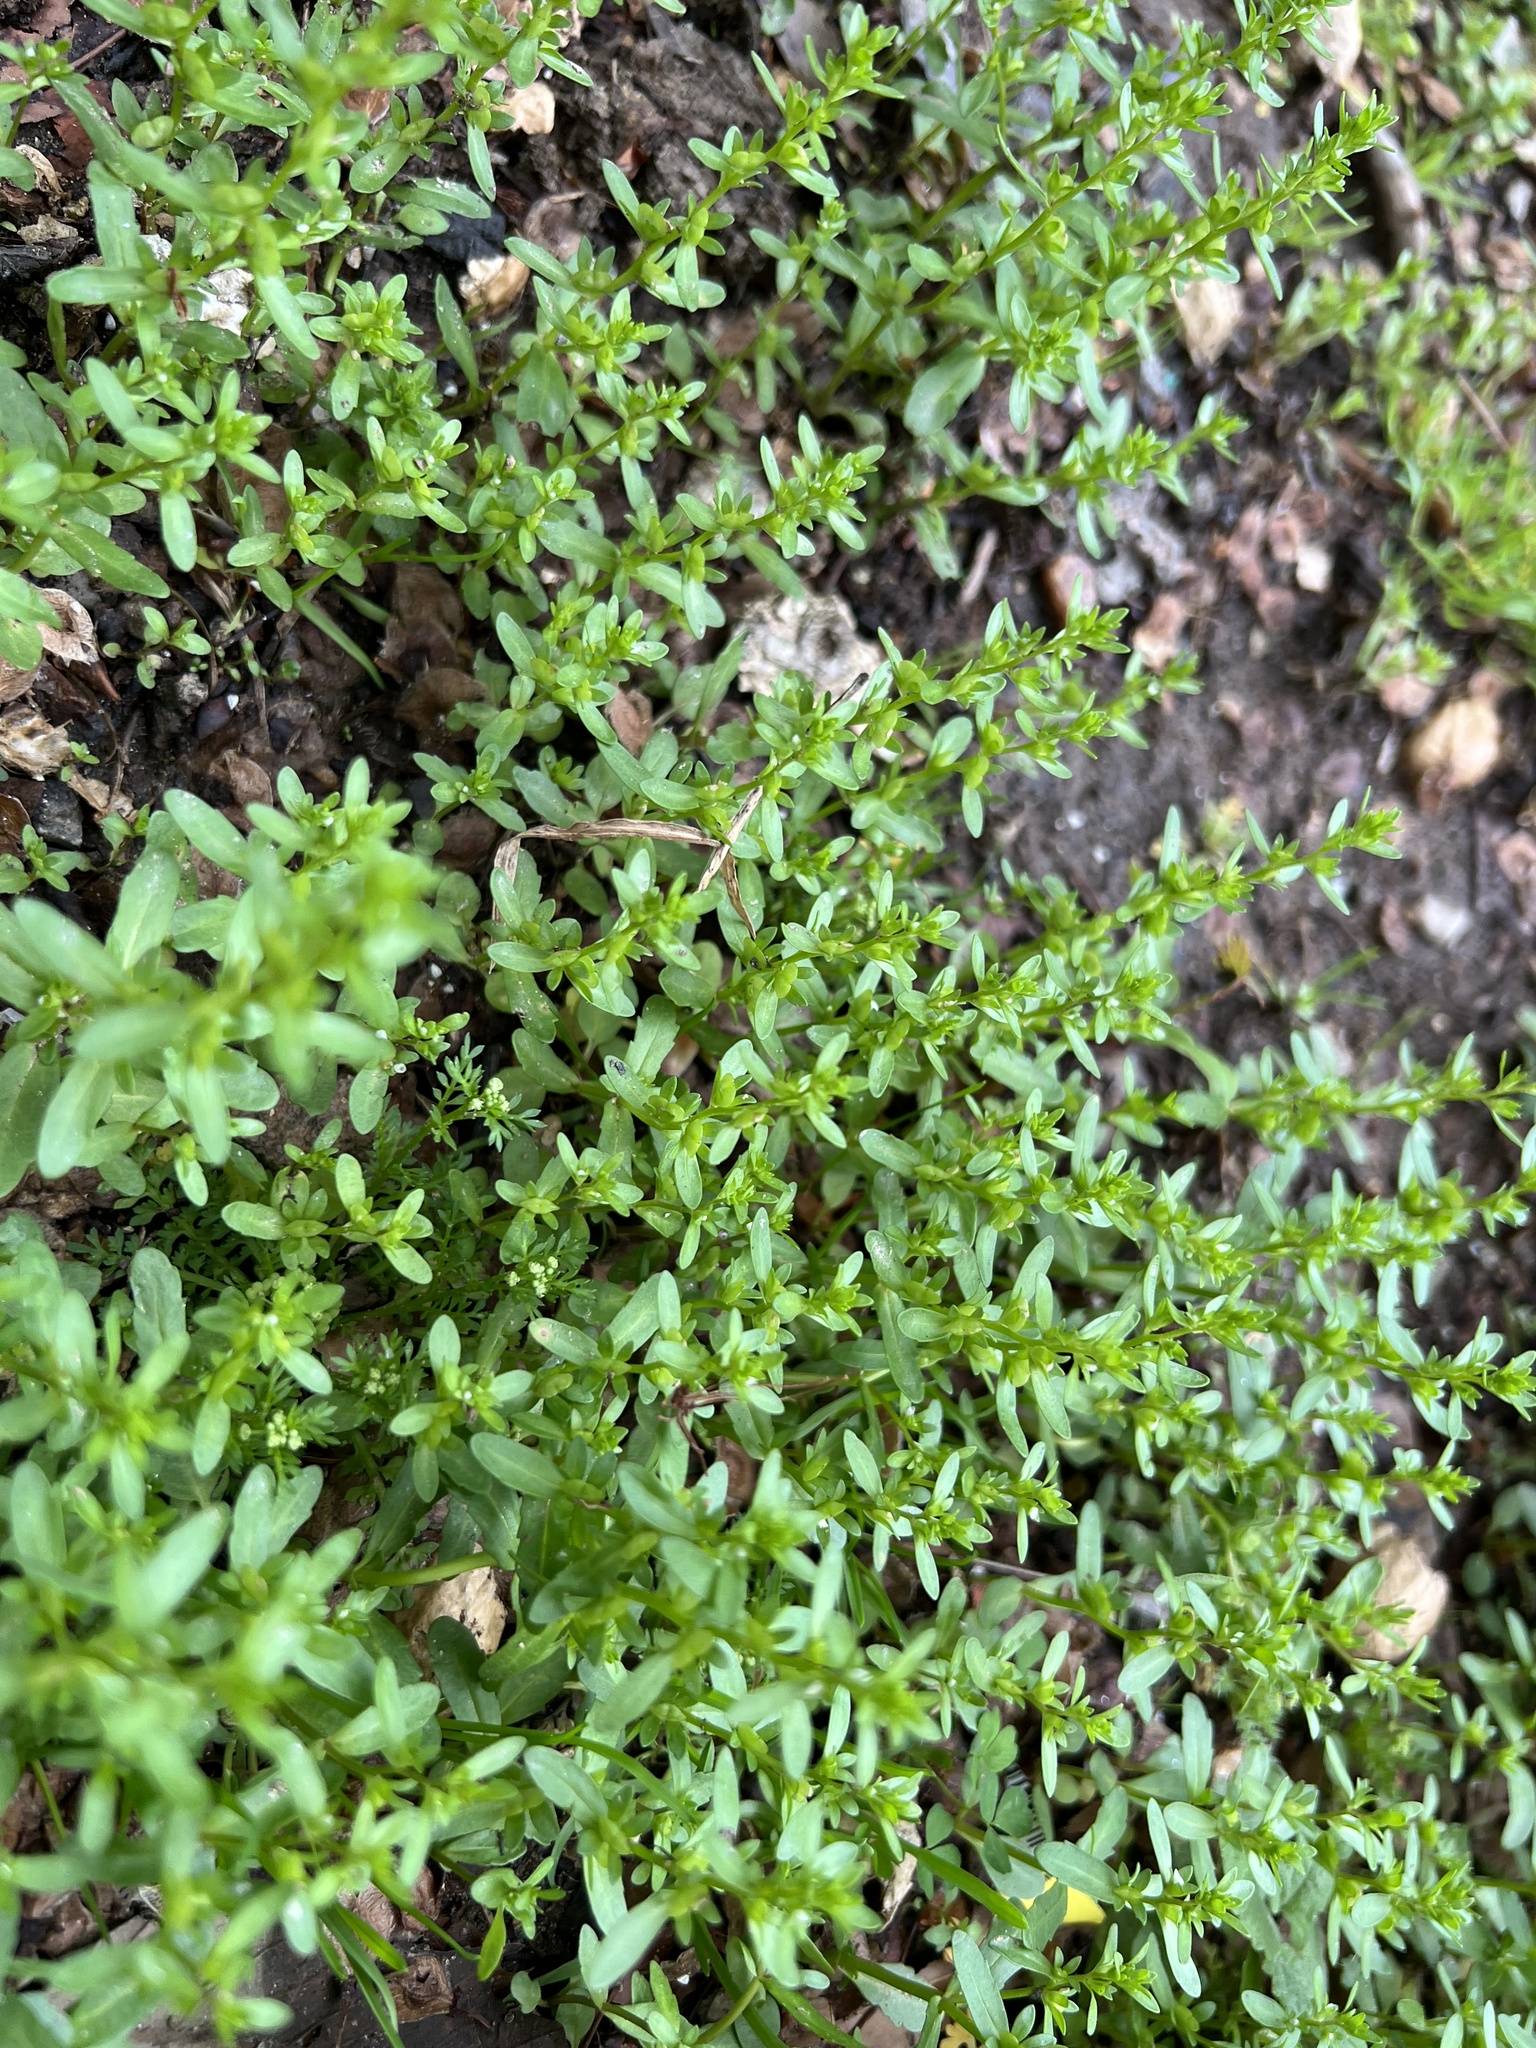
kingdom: Plantae
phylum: Tracheophyta
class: Magnoliopsida
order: Lamiales
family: Plantaginaceae
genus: Veronica
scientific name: Veronica peregrina
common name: Neckweed
